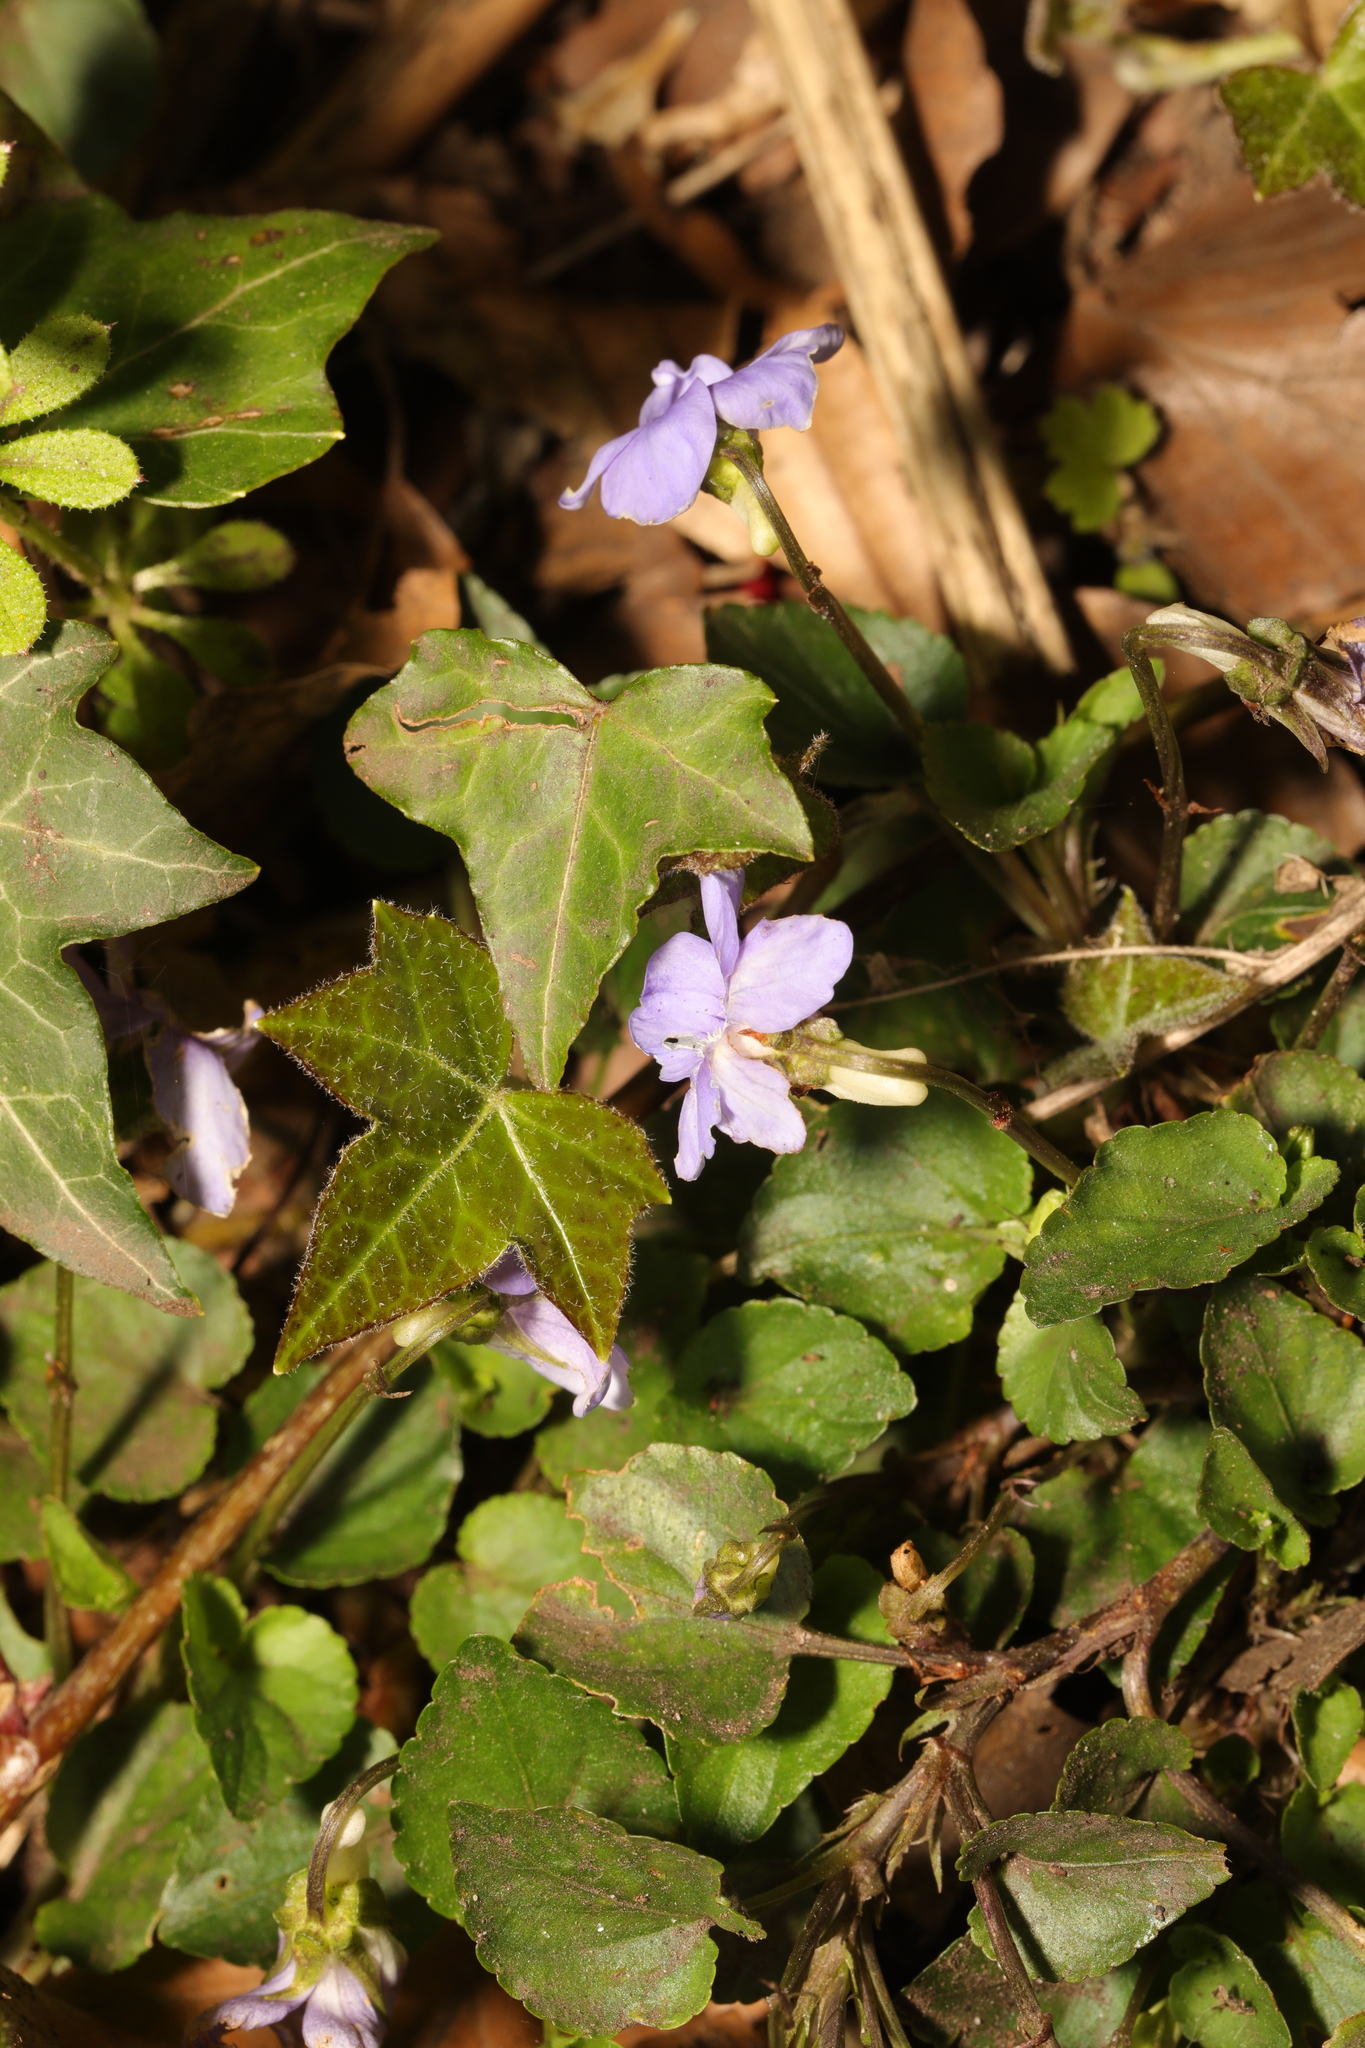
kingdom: Plantae
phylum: Tracheophyta
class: Magnoliopsida
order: Malpighiales
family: Violaceae
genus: Viola
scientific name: Viola riviniana
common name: Common dog-violet
